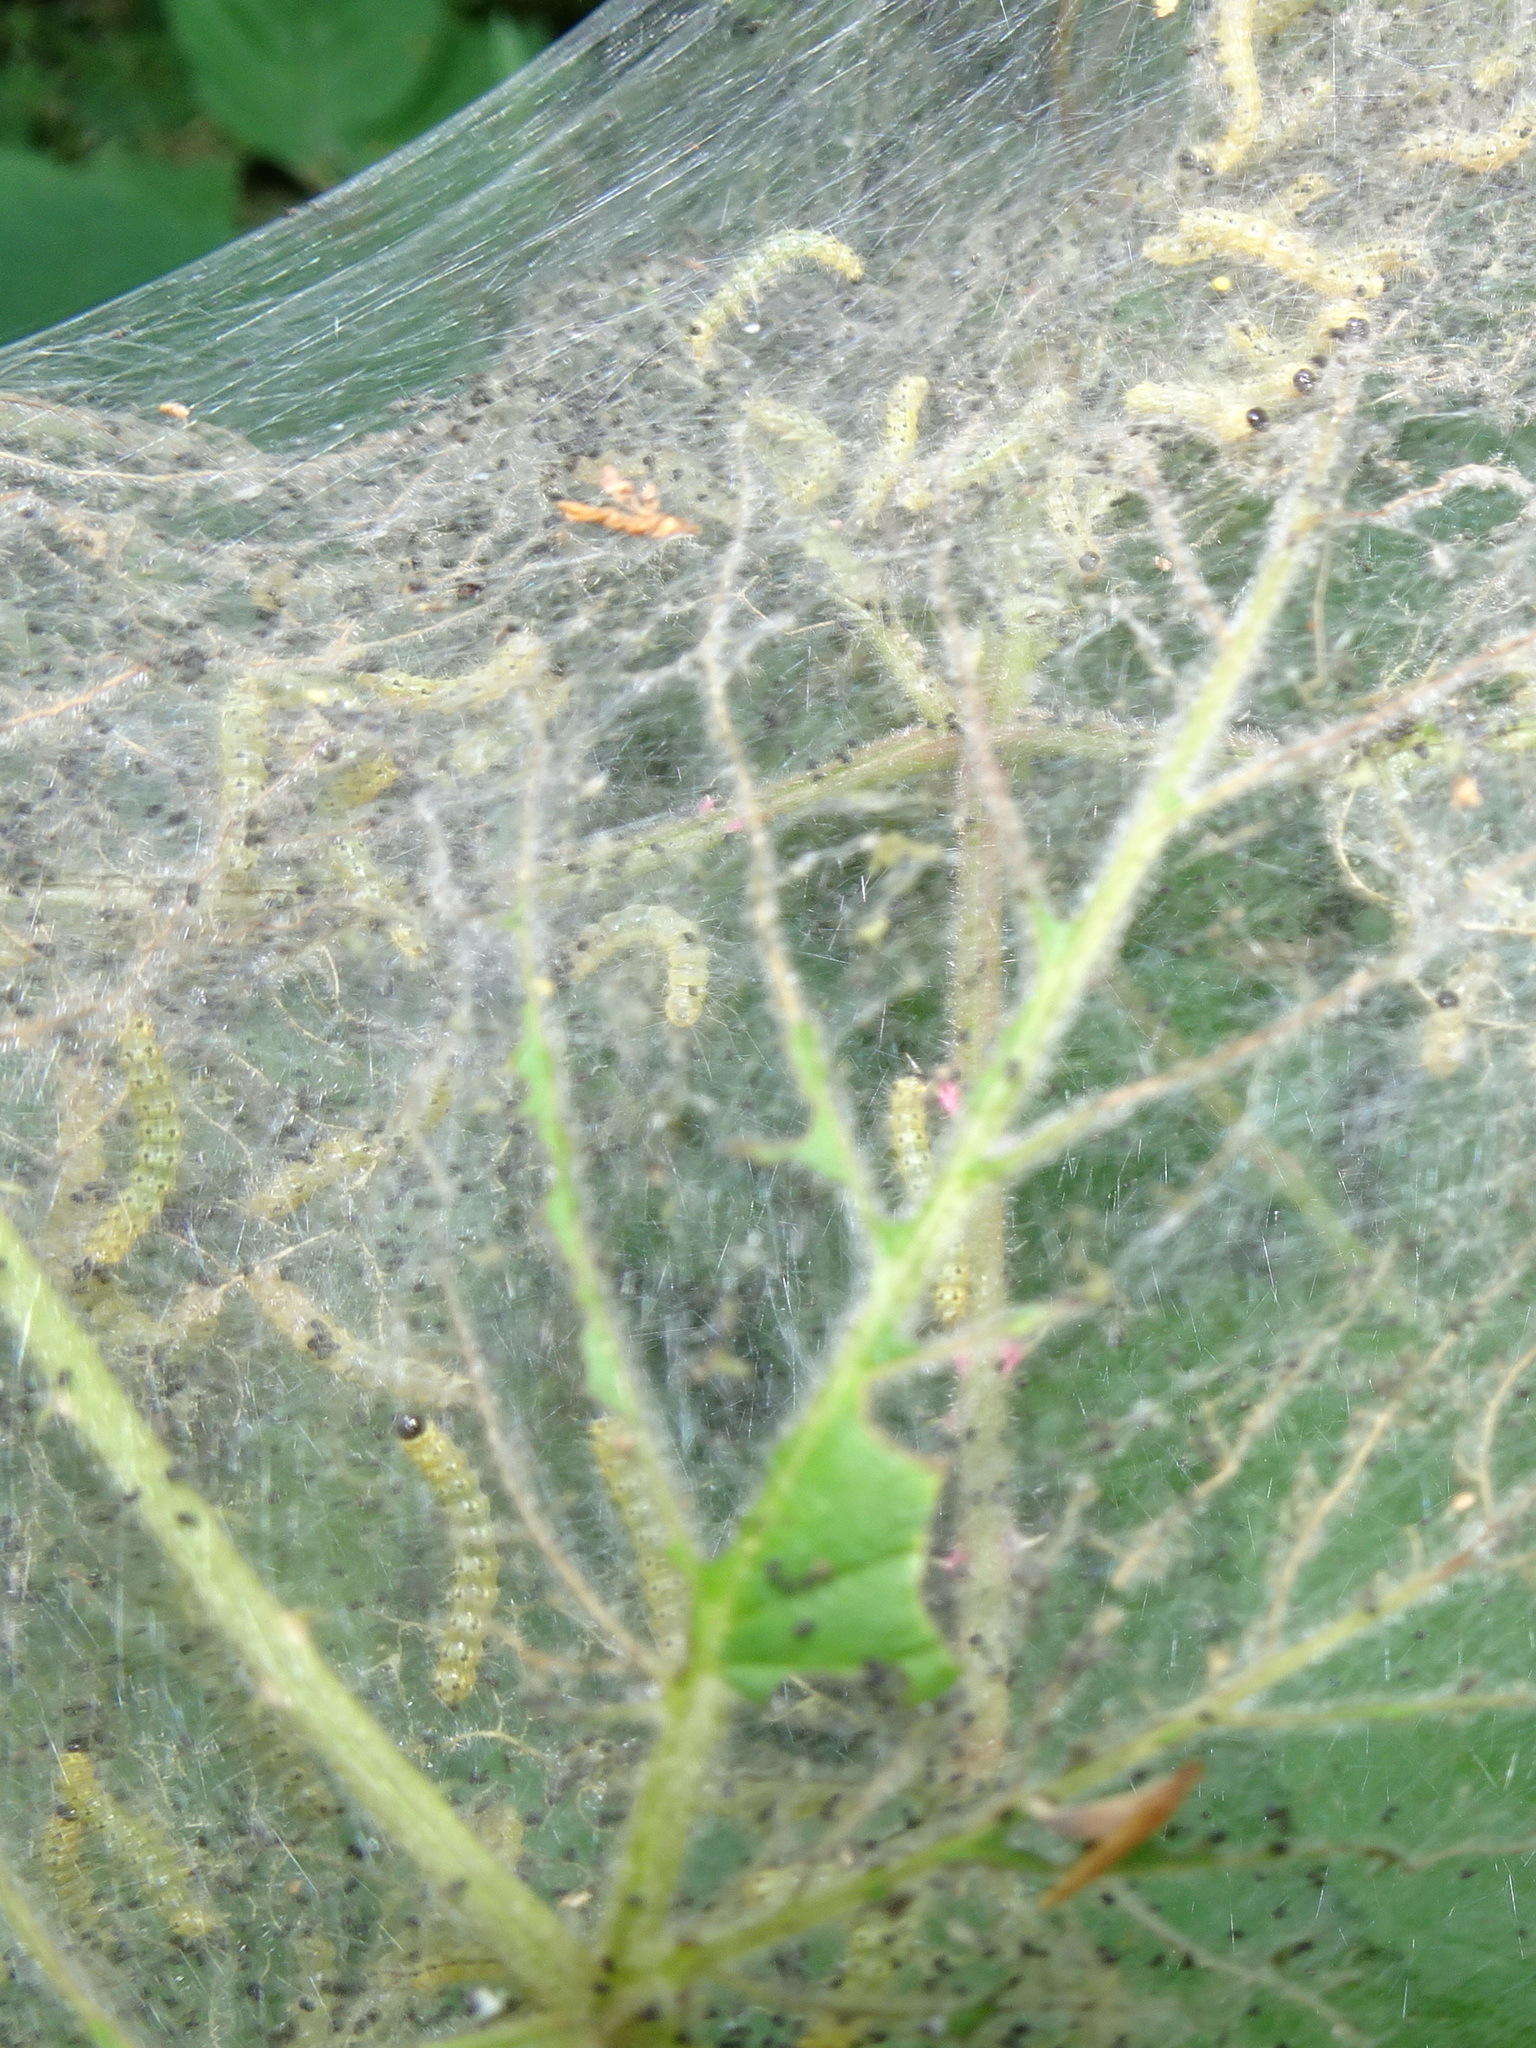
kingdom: Animalia
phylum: Arthropoda
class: Insecta
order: Lepidoptera
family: Erebidae
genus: Hyphantria
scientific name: Hyphantria cunea
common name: American white moth
